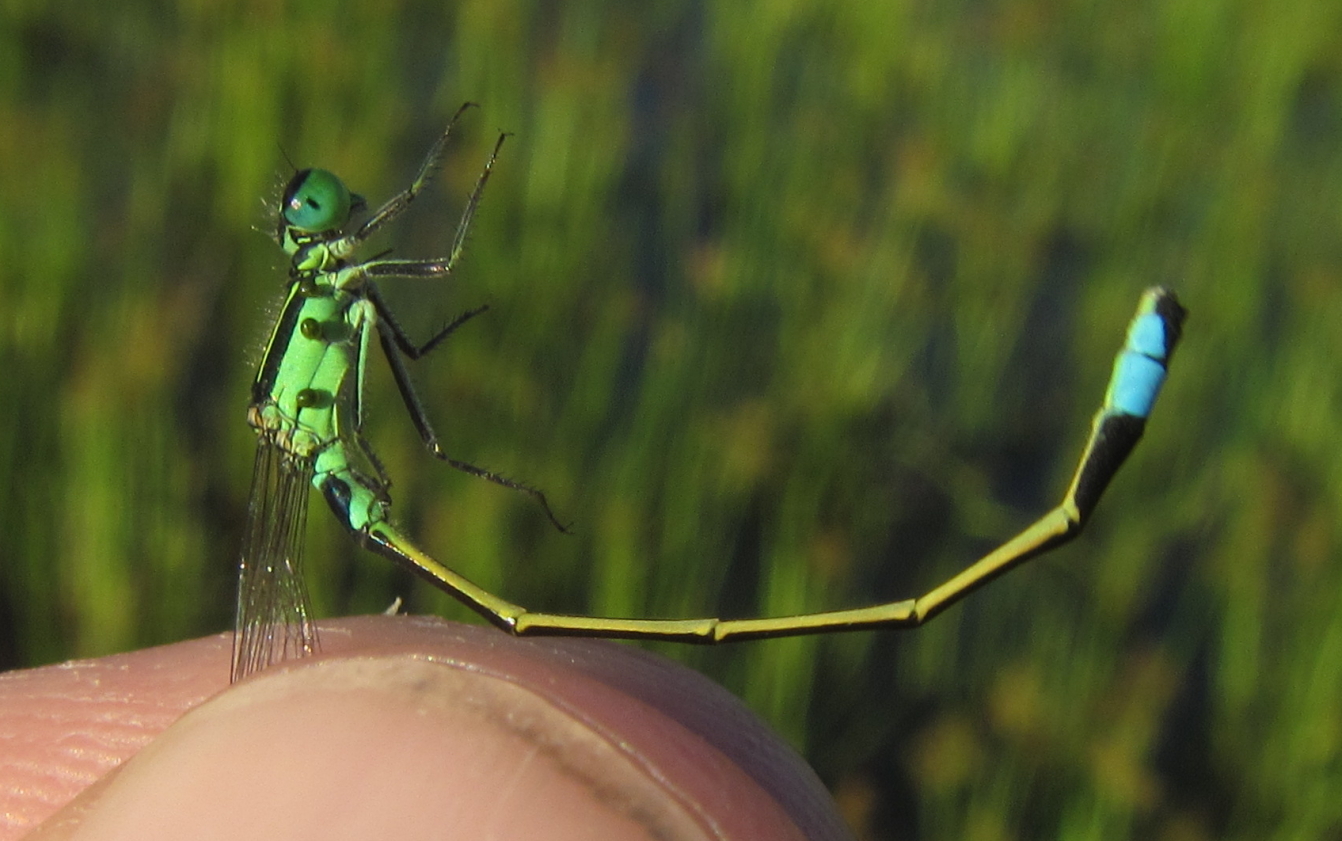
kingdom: Animalia
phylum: Arthropoda
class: Insecta
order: Odonata
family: Coenagrionidae
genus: Ischnura
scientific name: Ischnura senegalensis
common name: Tropical bluetail
